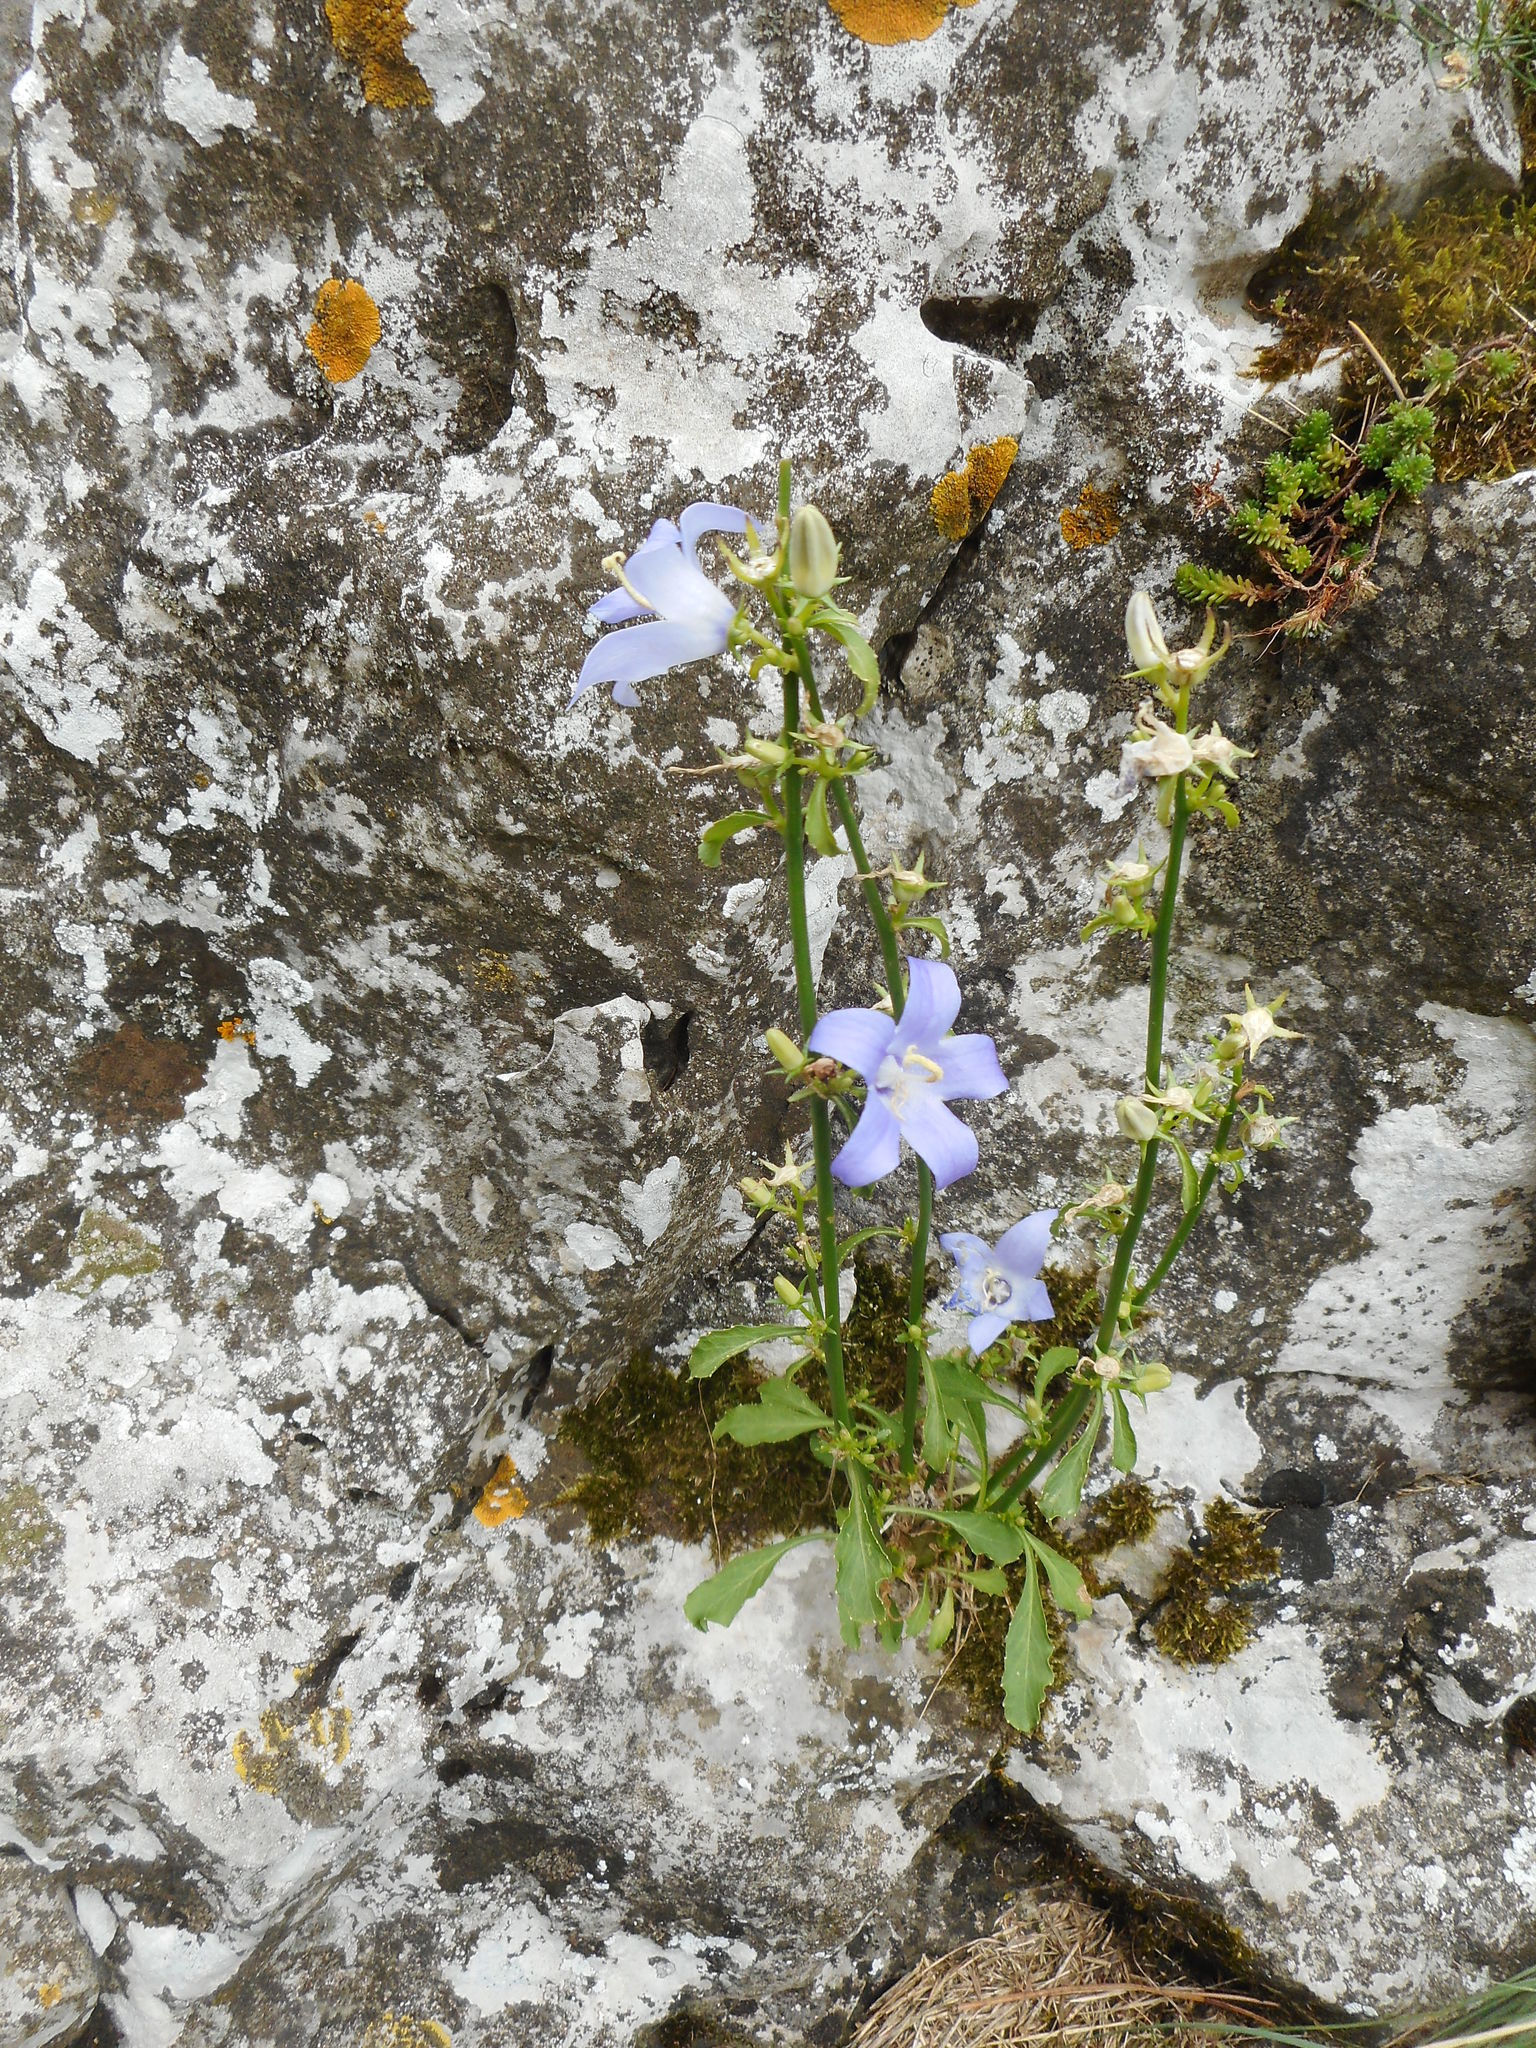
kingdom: Plantae
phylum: Tracheophyta
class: Magnoliopsida
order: Asterales
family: Campanulaceae
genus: Campanula
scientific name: Campanula pyramidalis
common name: Chimney bellflower
